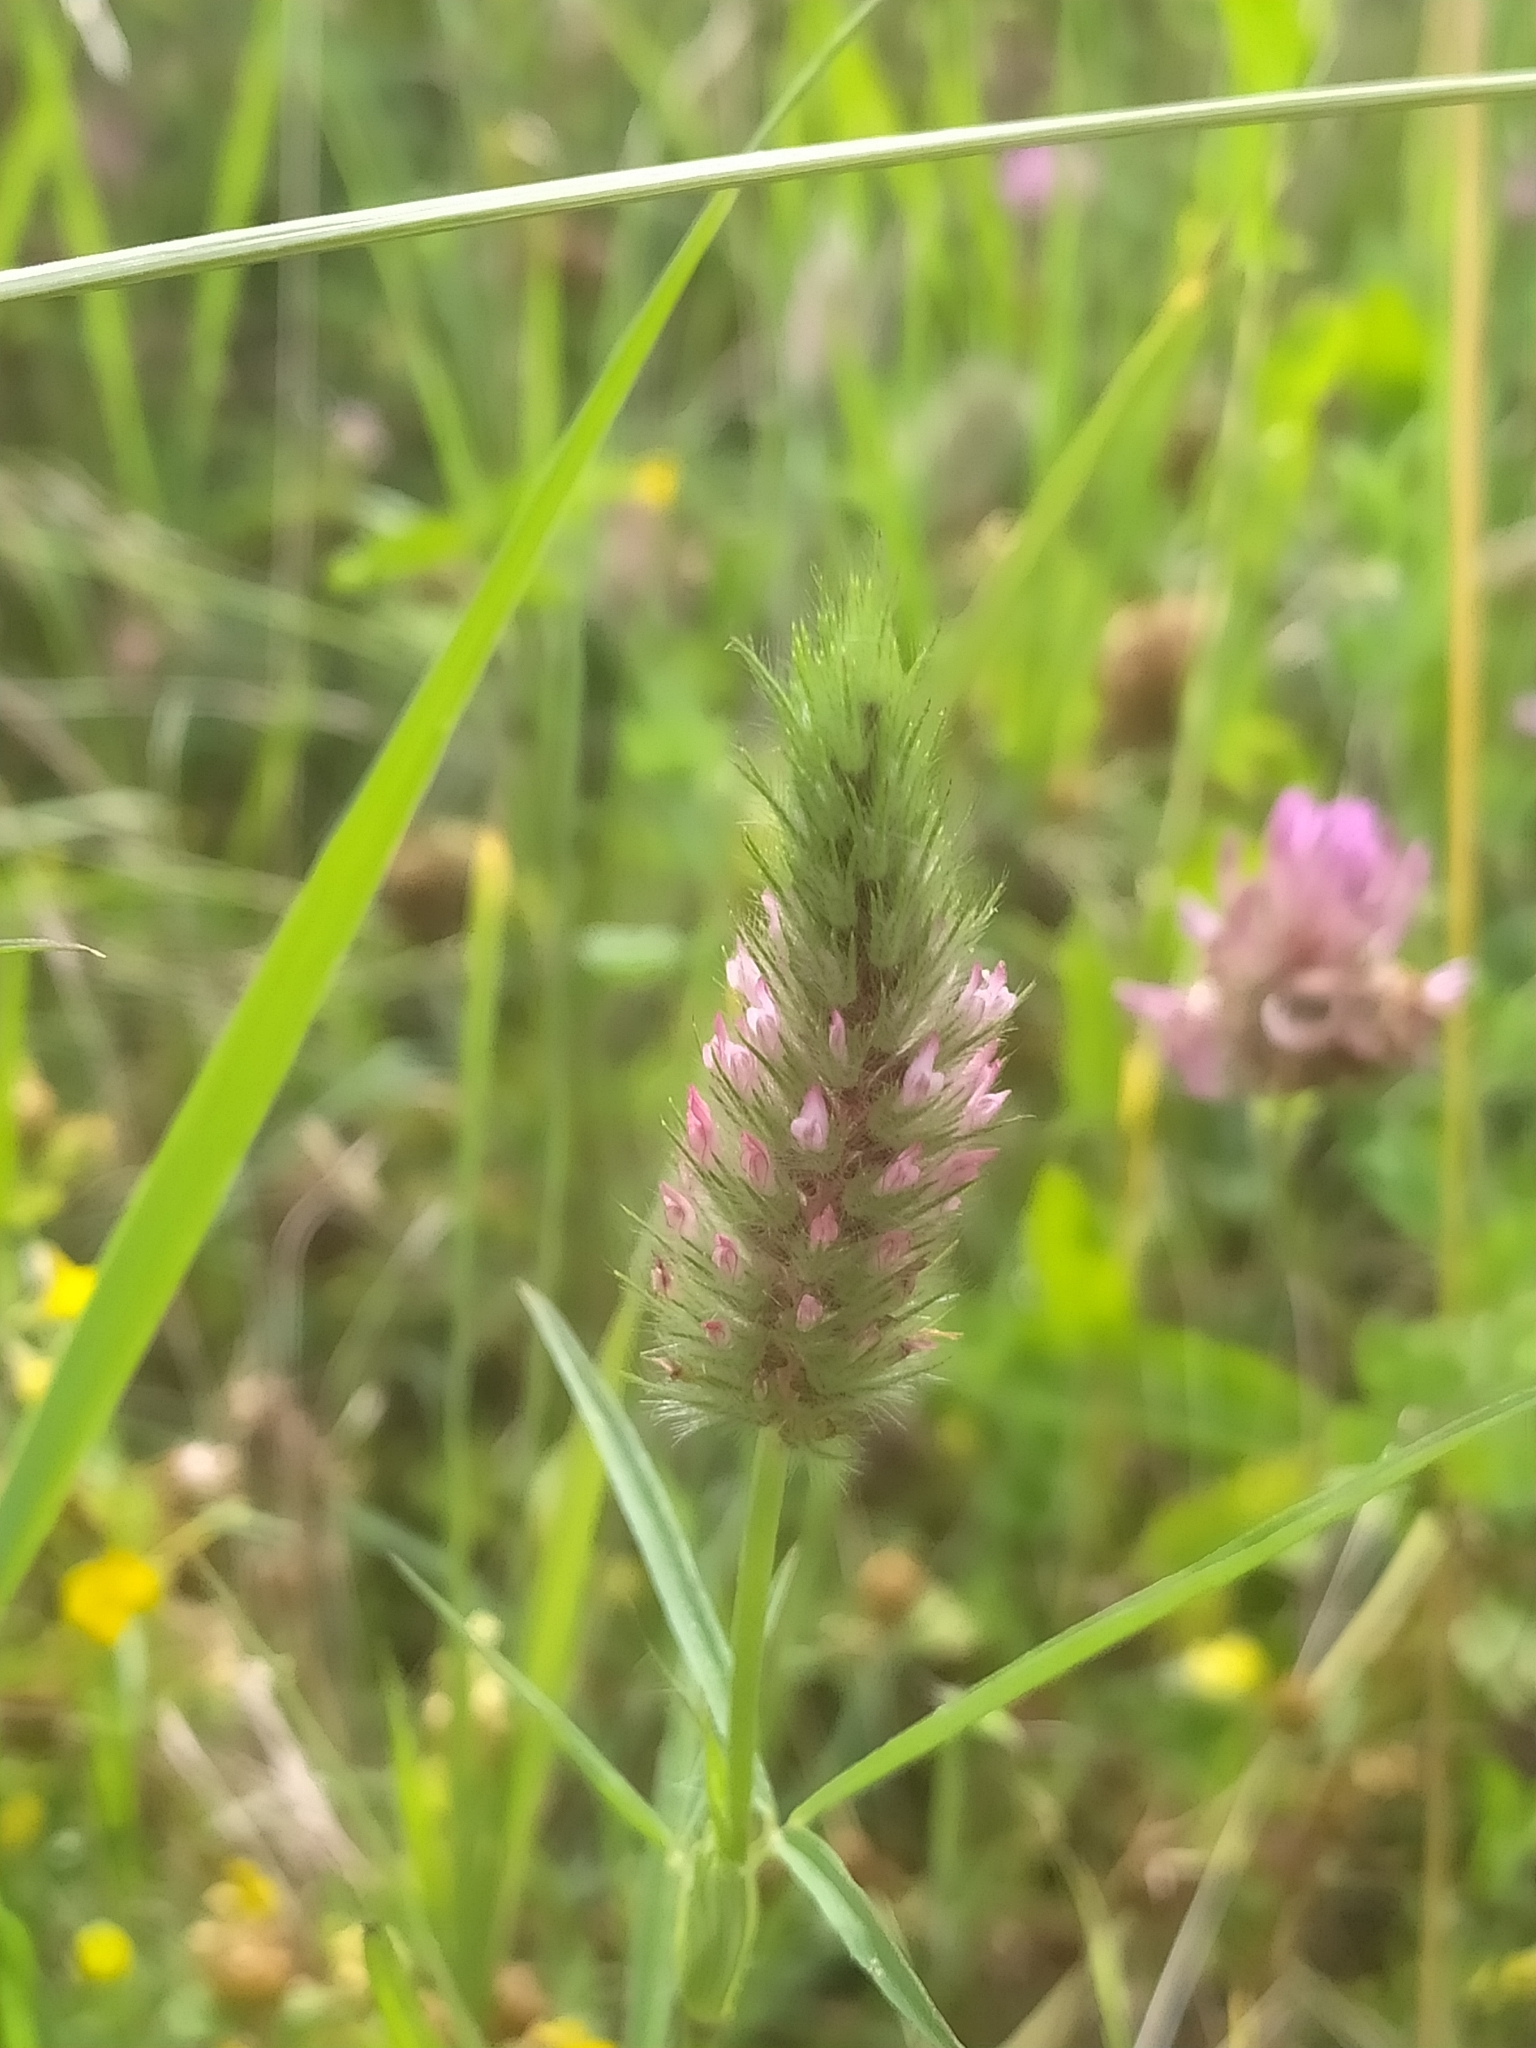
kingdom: Plantae
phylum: Tracheophyta
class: Magnoliopsida
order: Fabales
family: Fabaceae
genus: Trifolium
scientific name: Trifolium angustifolium
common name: Narrow clover
